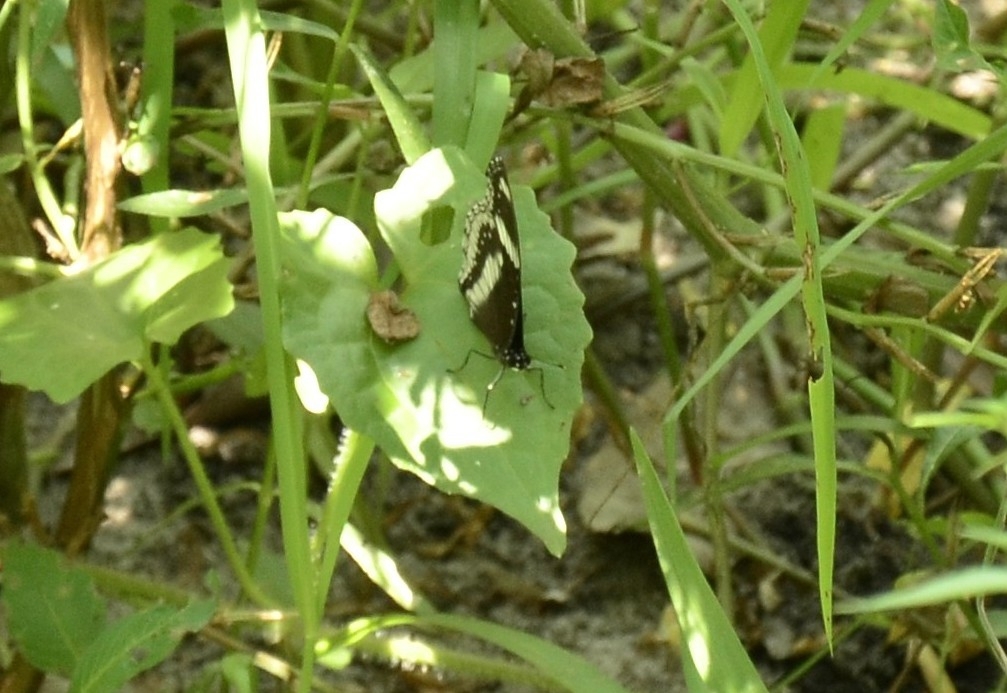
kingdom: Animalia
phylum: Arthropoda
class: Insecta
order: Lepidoptera
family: Nymphalidae
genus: Hypolimnas
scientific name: Hypolimnas bolina
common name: Great eggfly
